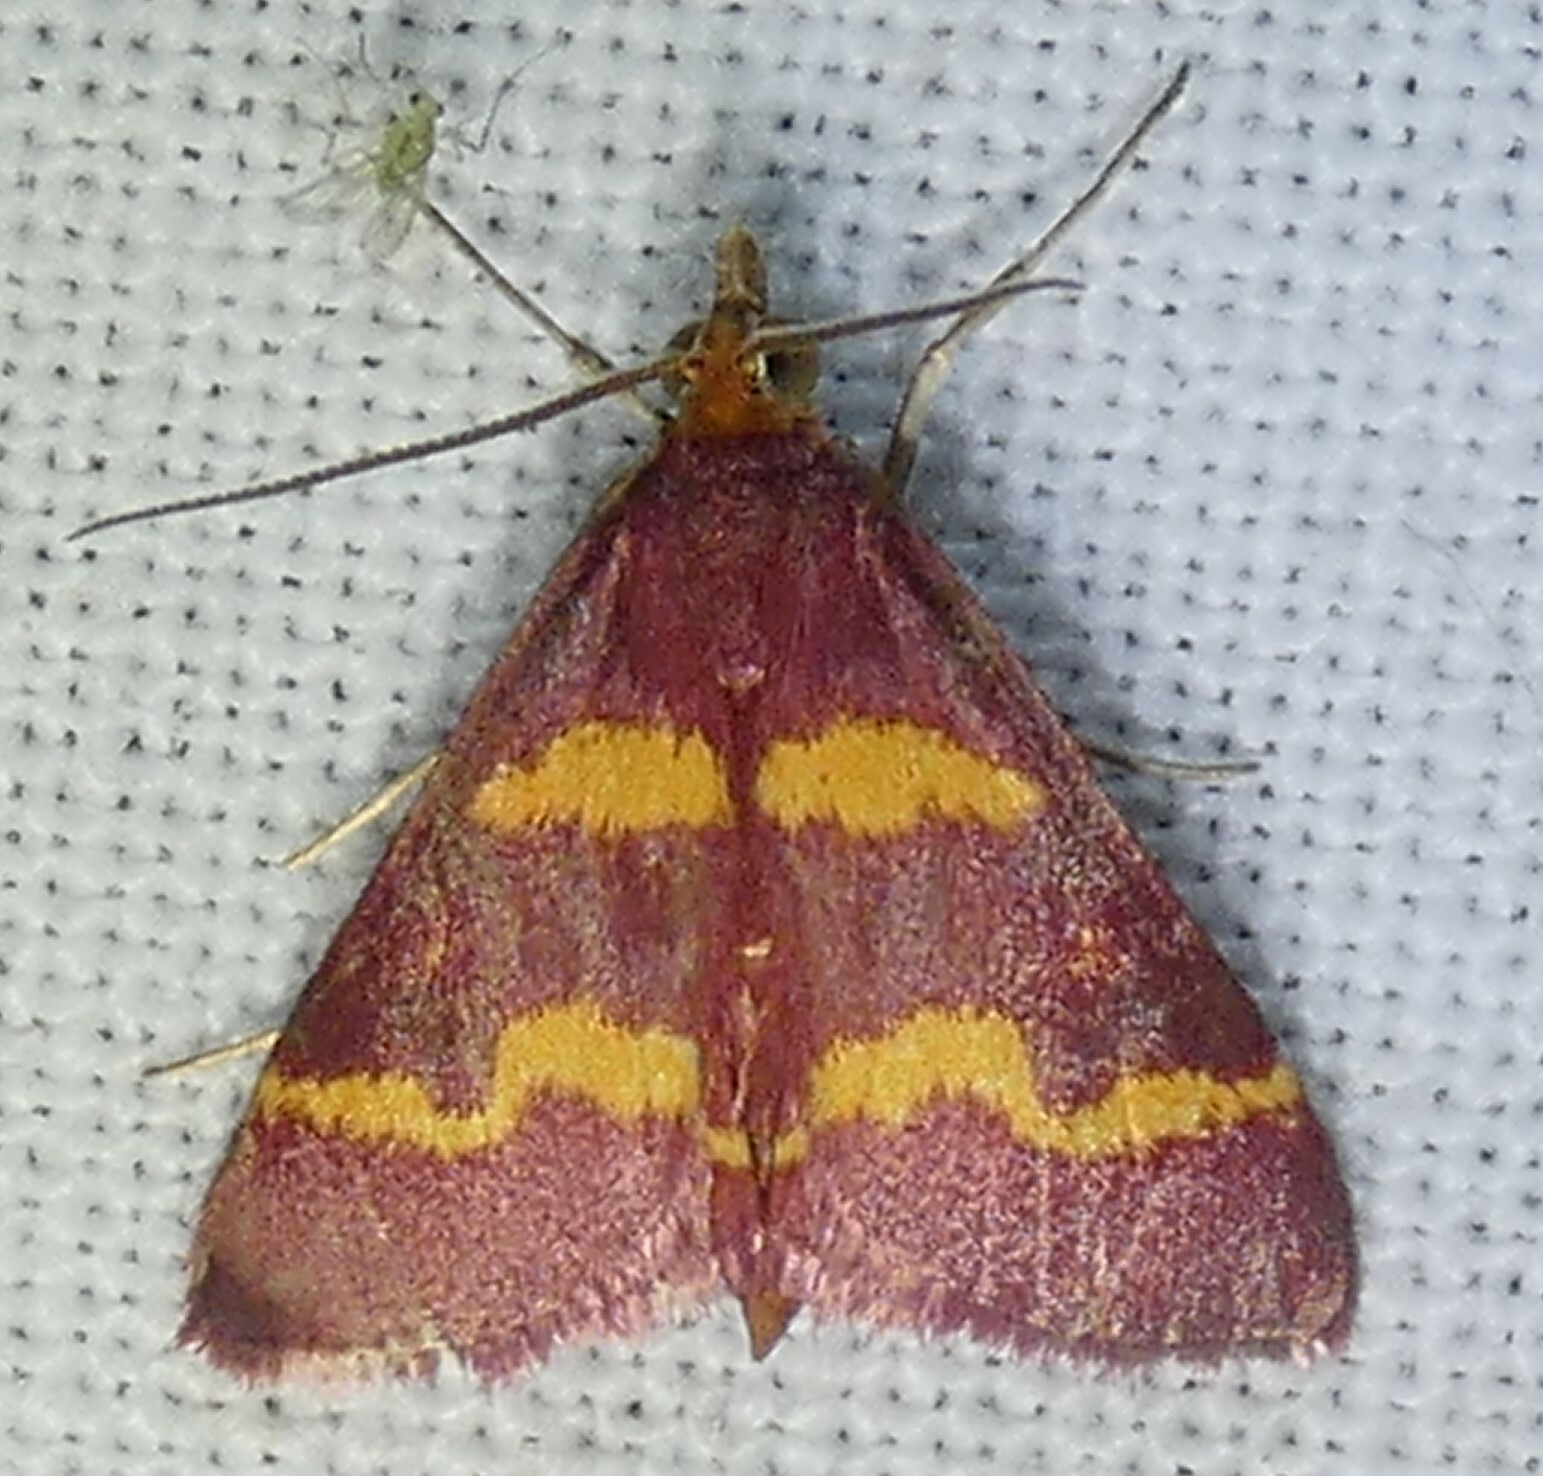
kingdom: Animalia
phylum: Arthropoda
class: Insecta
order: Lepidoptera
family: Crambidae
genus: Pyrausta
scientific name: Pyrausta tyralis
